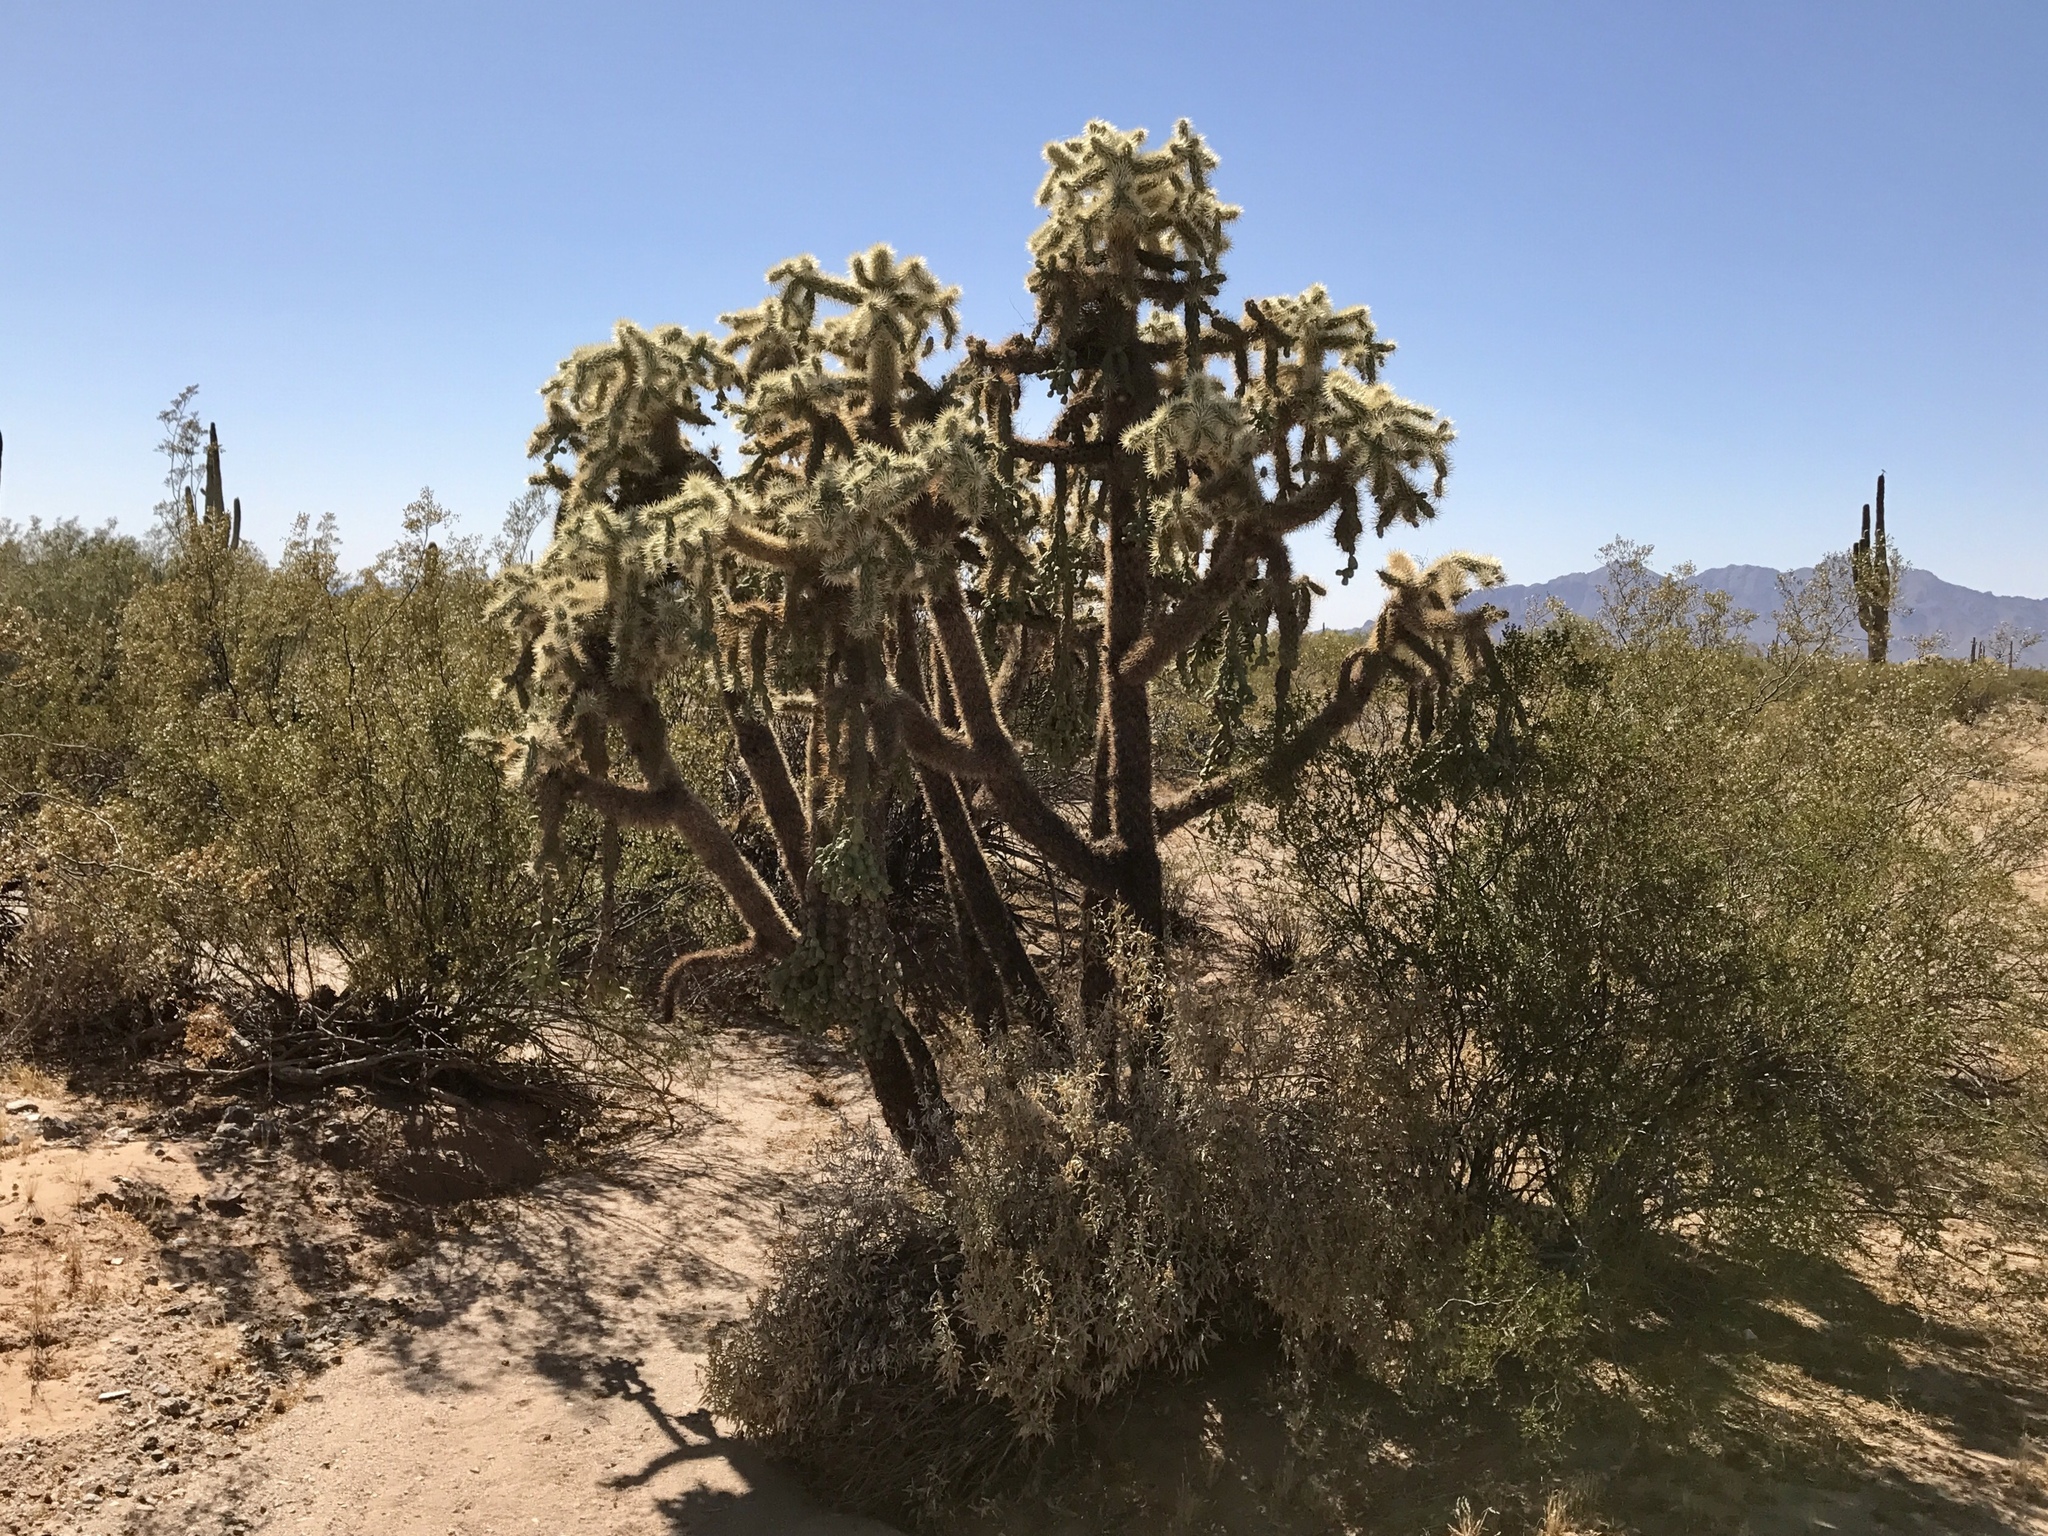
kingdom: Plantae
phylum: Tracheophyta
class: Magnoliopsida
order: Caryophyllales
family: Cactaceae
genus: Cylindropuntia
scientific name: Cylindropuntia fulgida
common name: Jumping cholla
